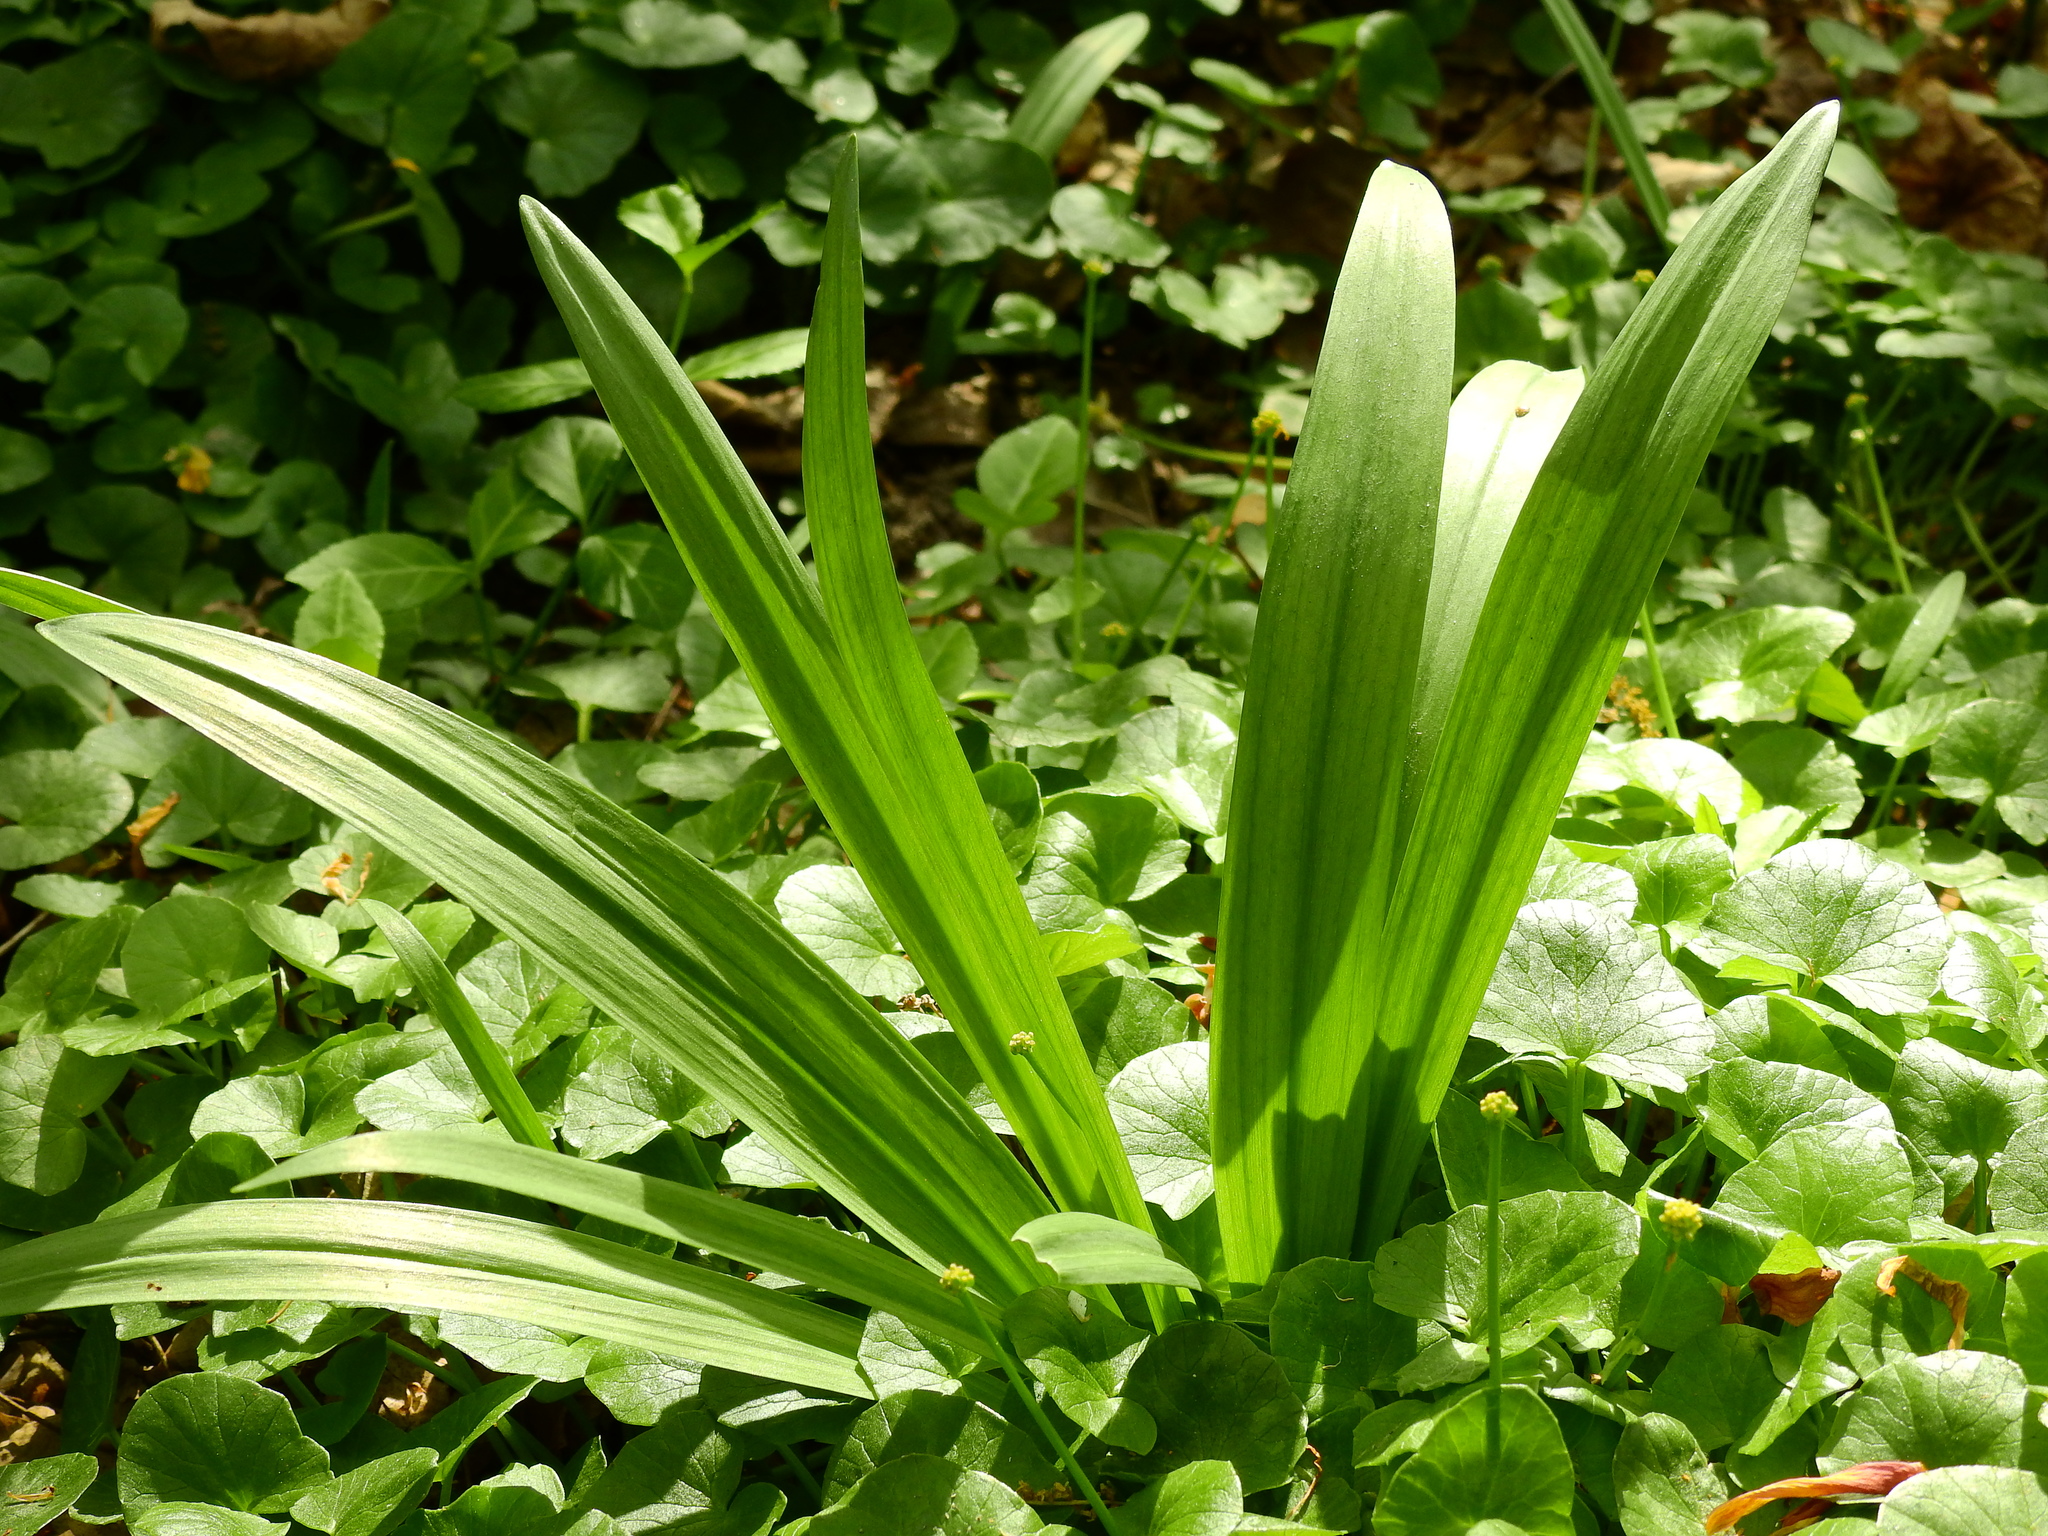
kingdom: Plantae
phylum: Tracheophyta
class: Liliopsida
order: Asparagales
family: Amaryllidaceae
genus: Allium
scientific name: Allium tricoccum
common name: Ramp
